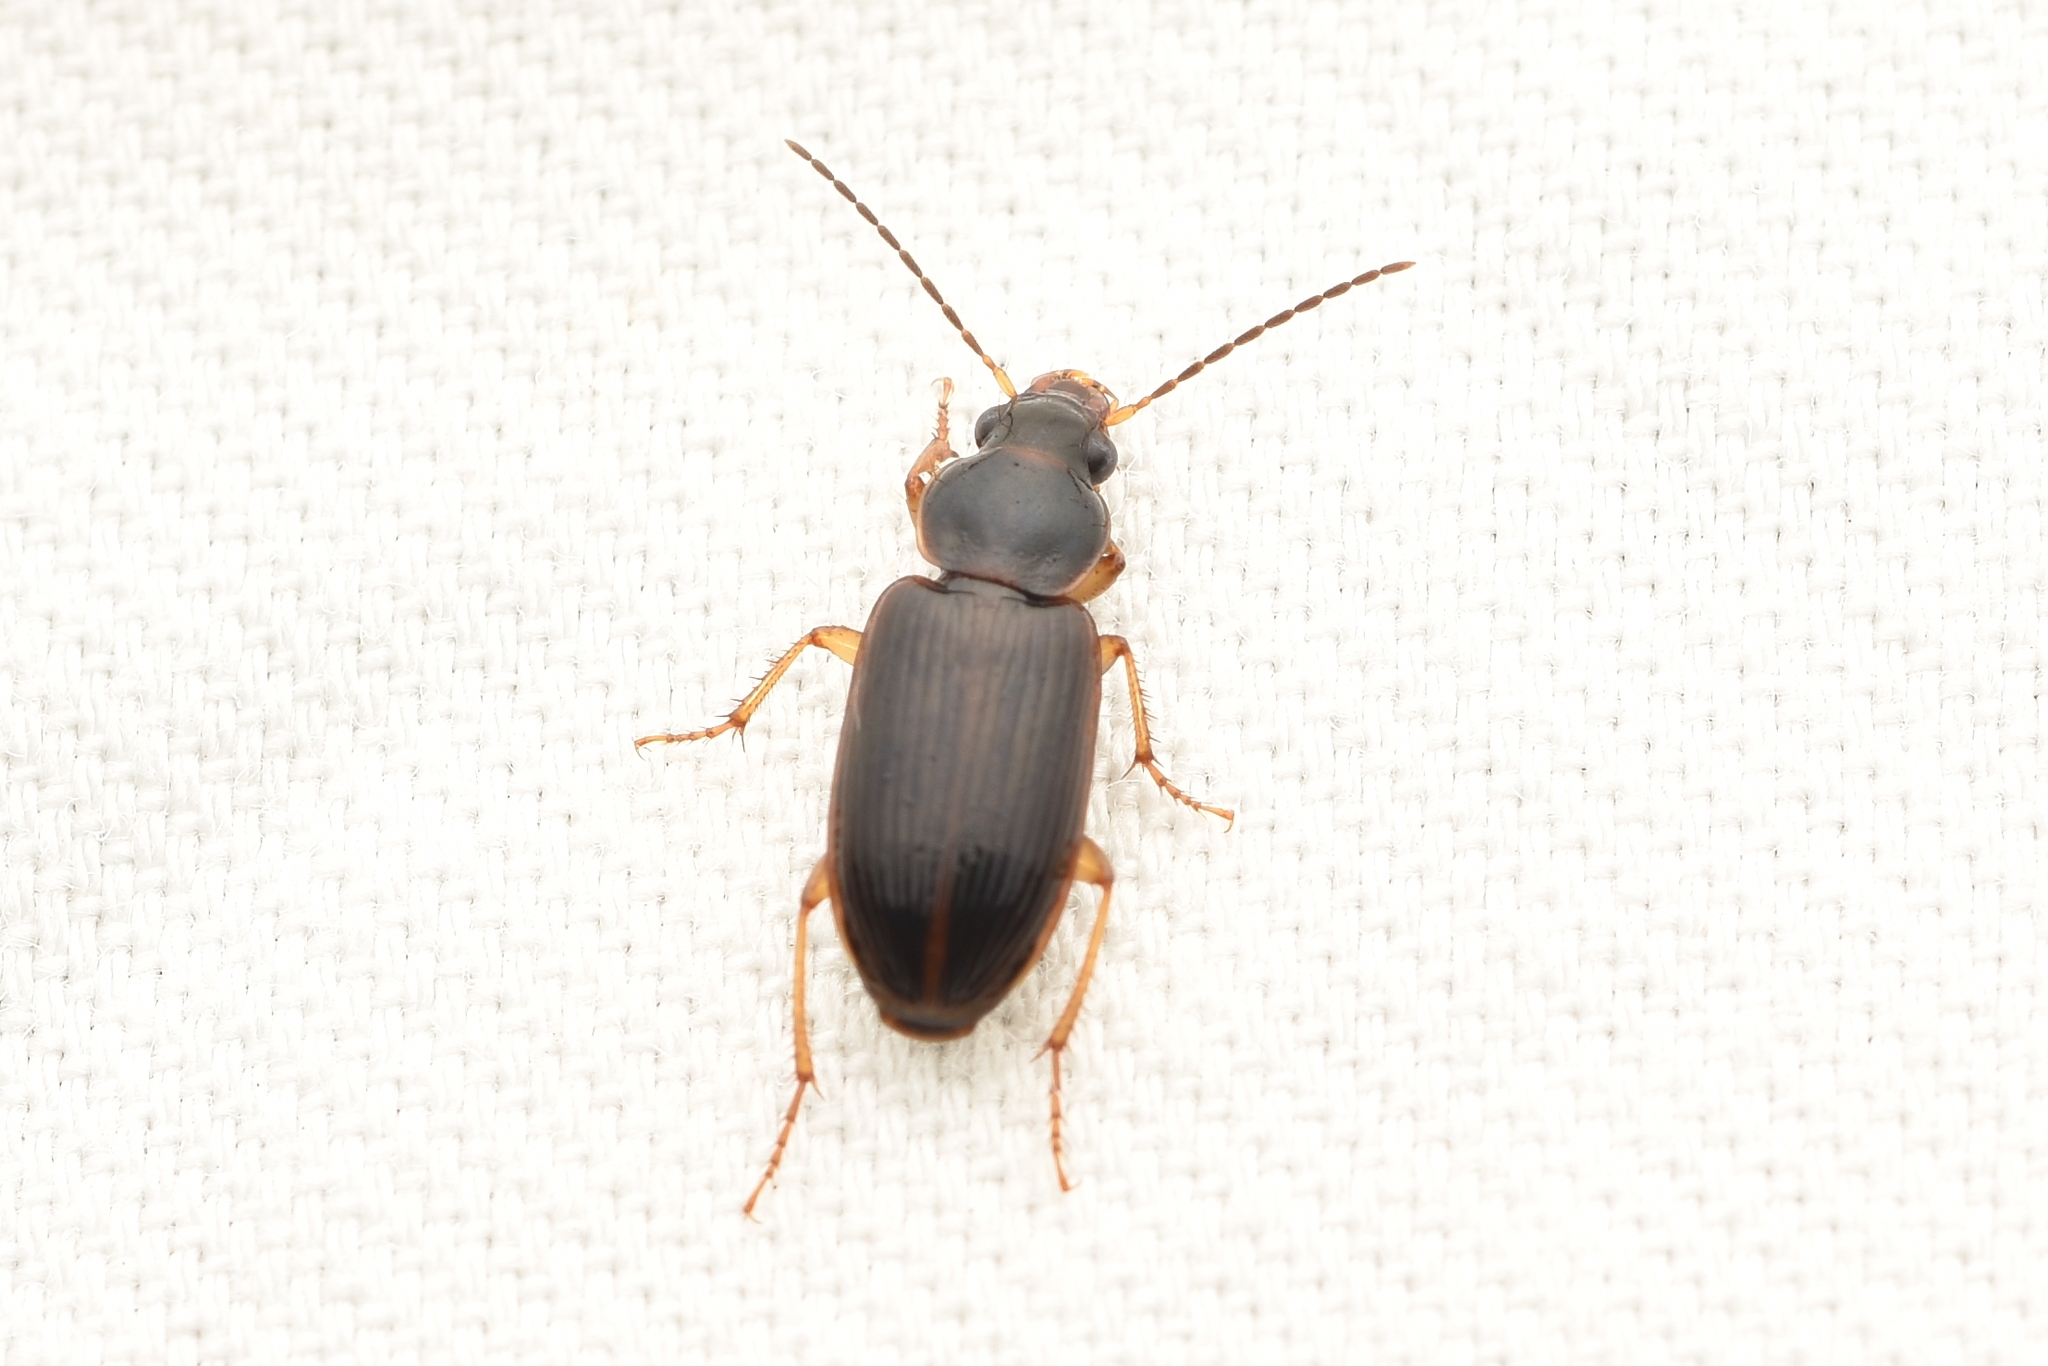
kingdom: Animalia
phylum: Arthropoda
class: Insecta
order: Coleoptera
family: Carabidae
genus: Stenolophus
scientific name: Stenolophus ochropezus
